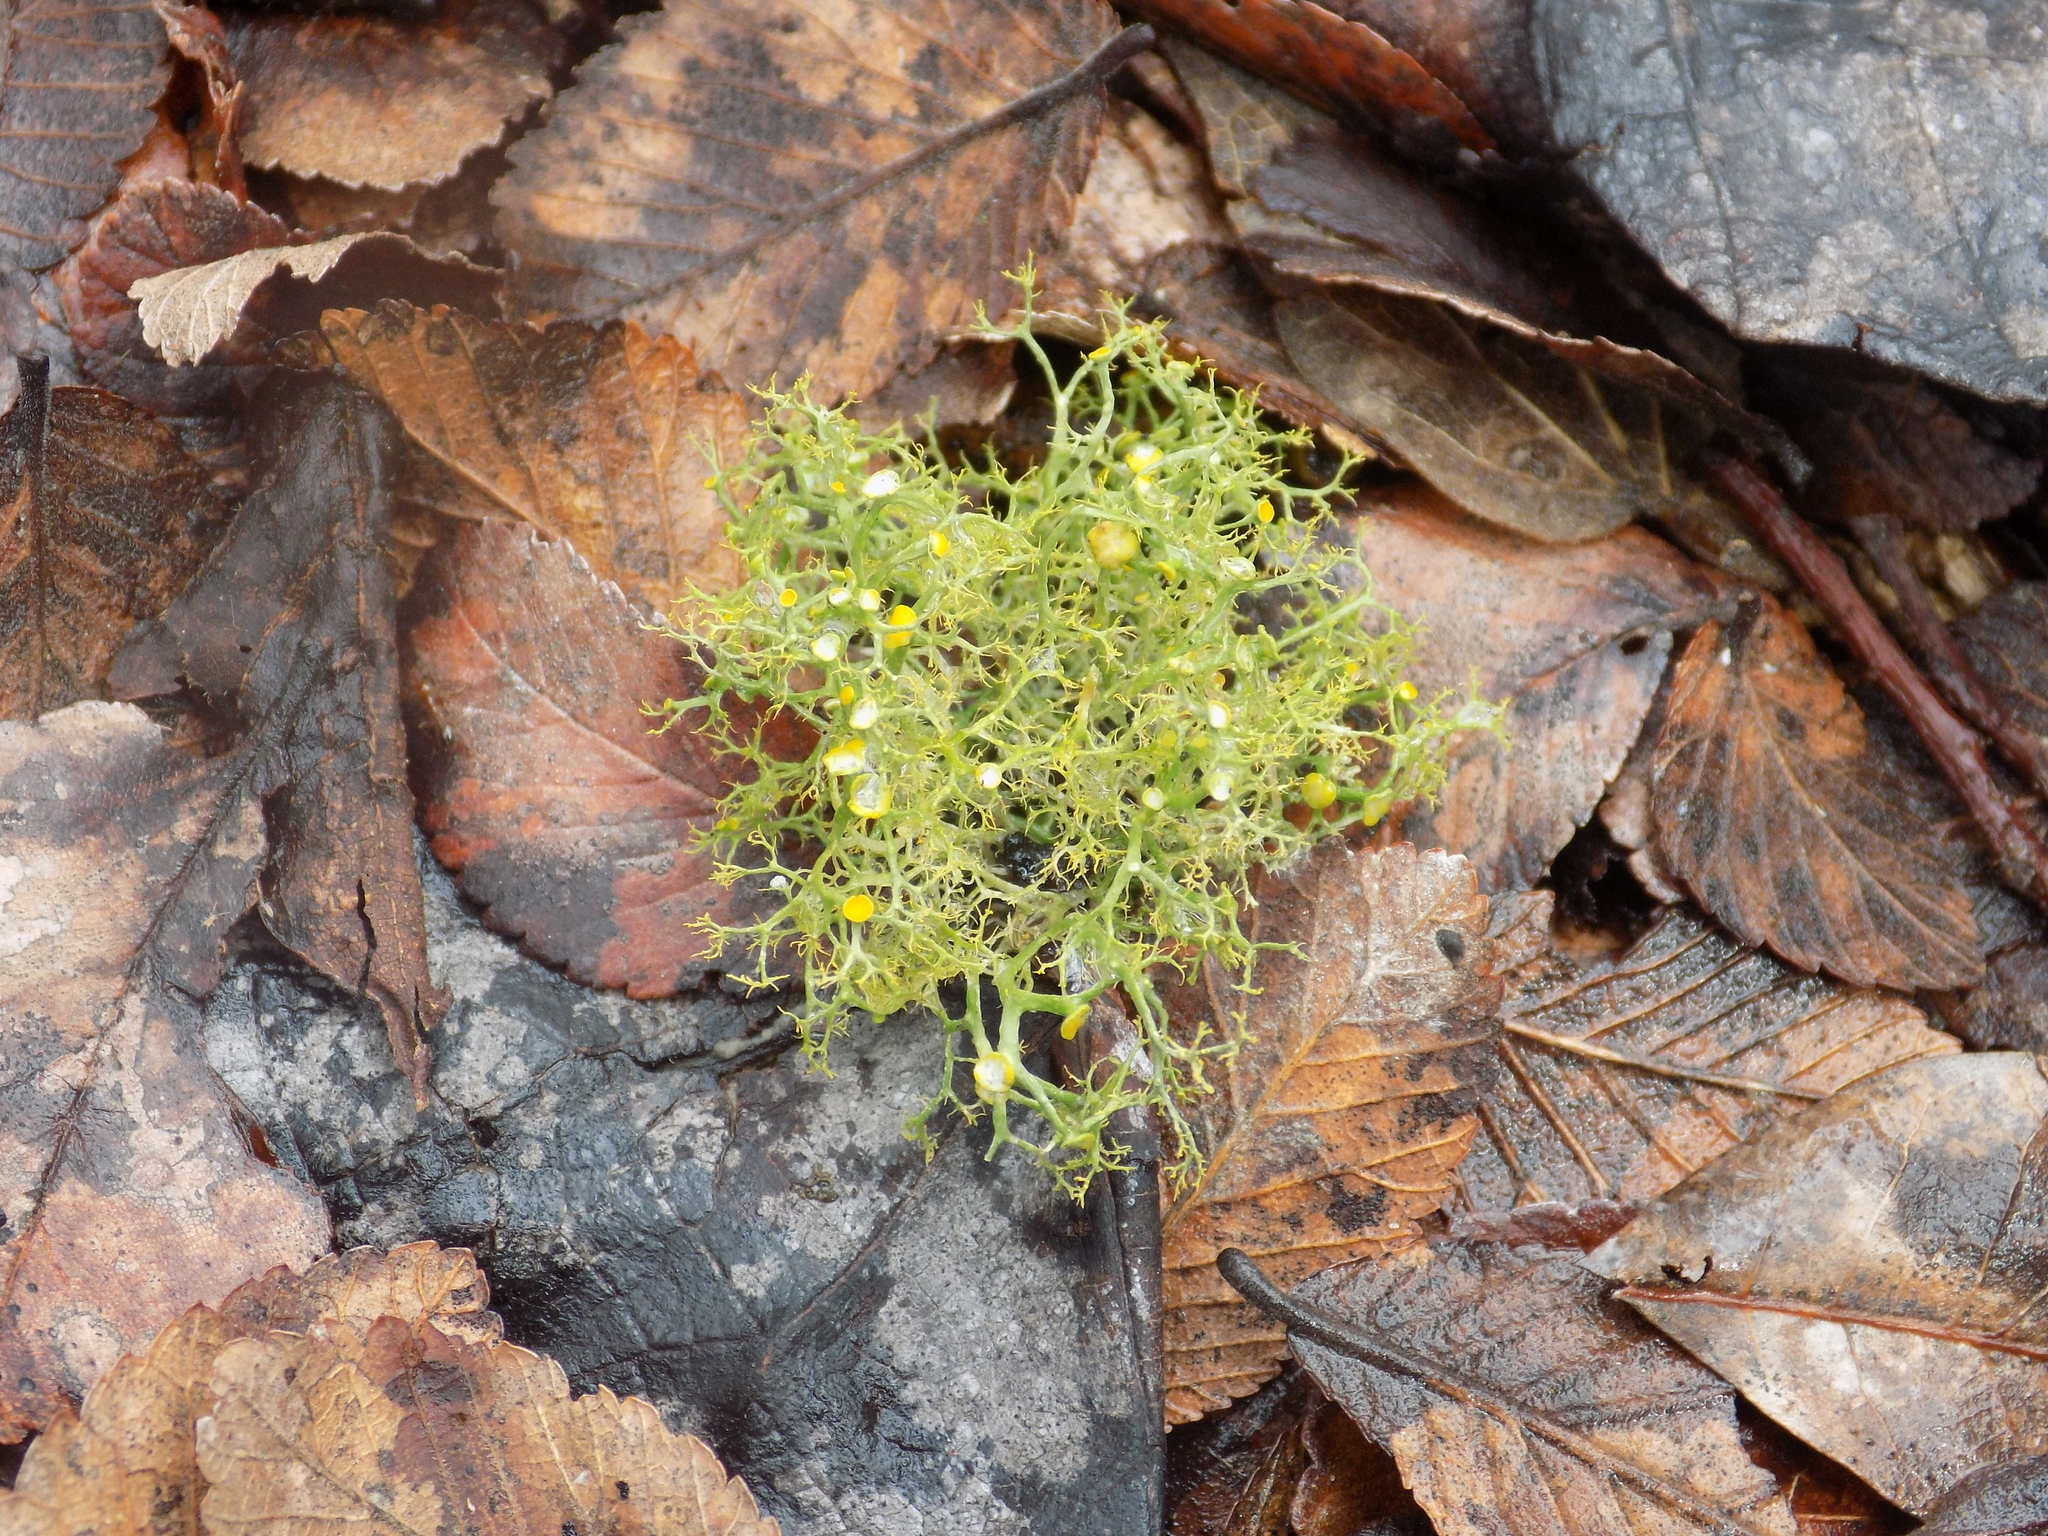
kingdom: Fungi
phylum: Ascomycota
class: Lecanoromycetes
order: Teloschistales
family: Teloschistaceae
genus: Teloschistes
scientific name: Teloschistes exilis
